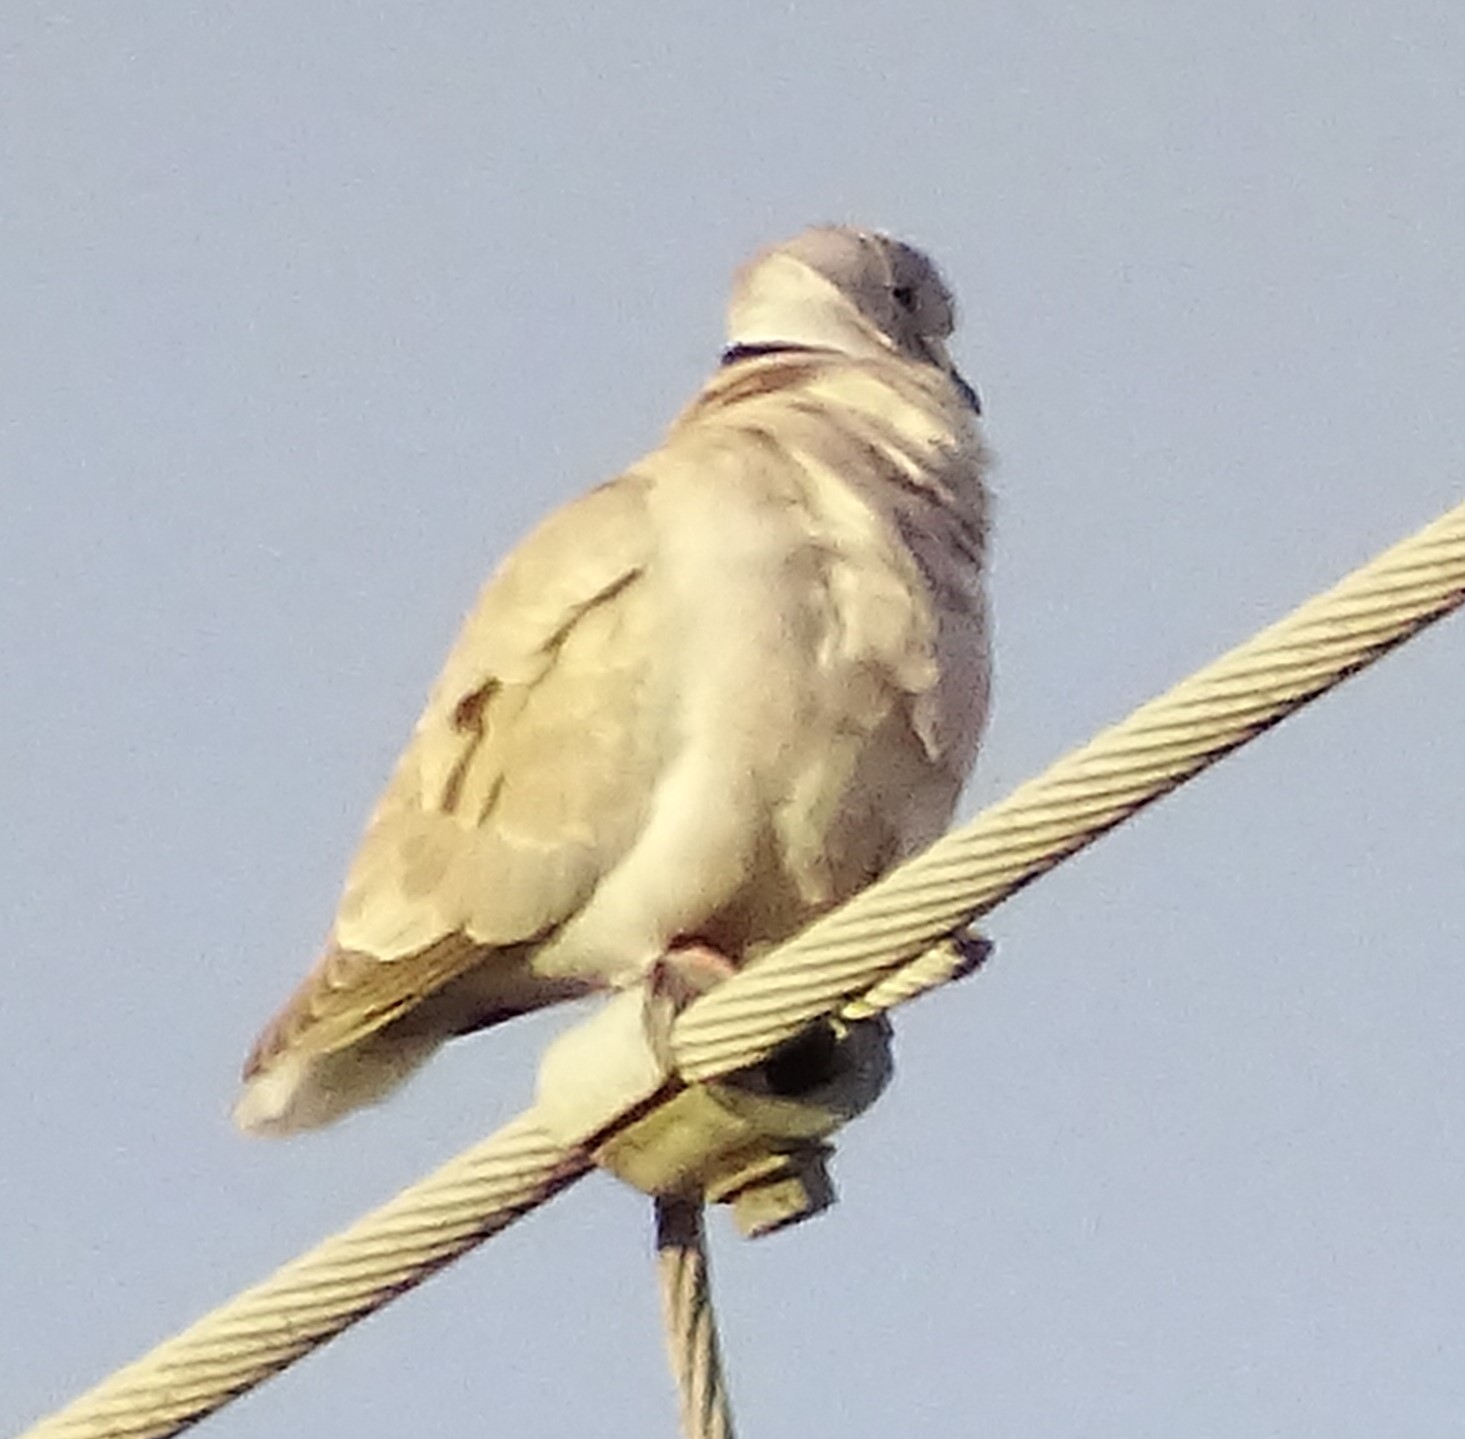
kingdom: Animalia
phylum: Chordata
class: Aves
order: Columbiformes
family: Columbidae
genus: Streptopelia
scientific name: Streptopelia decaocto
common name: Eurasian collared dove
